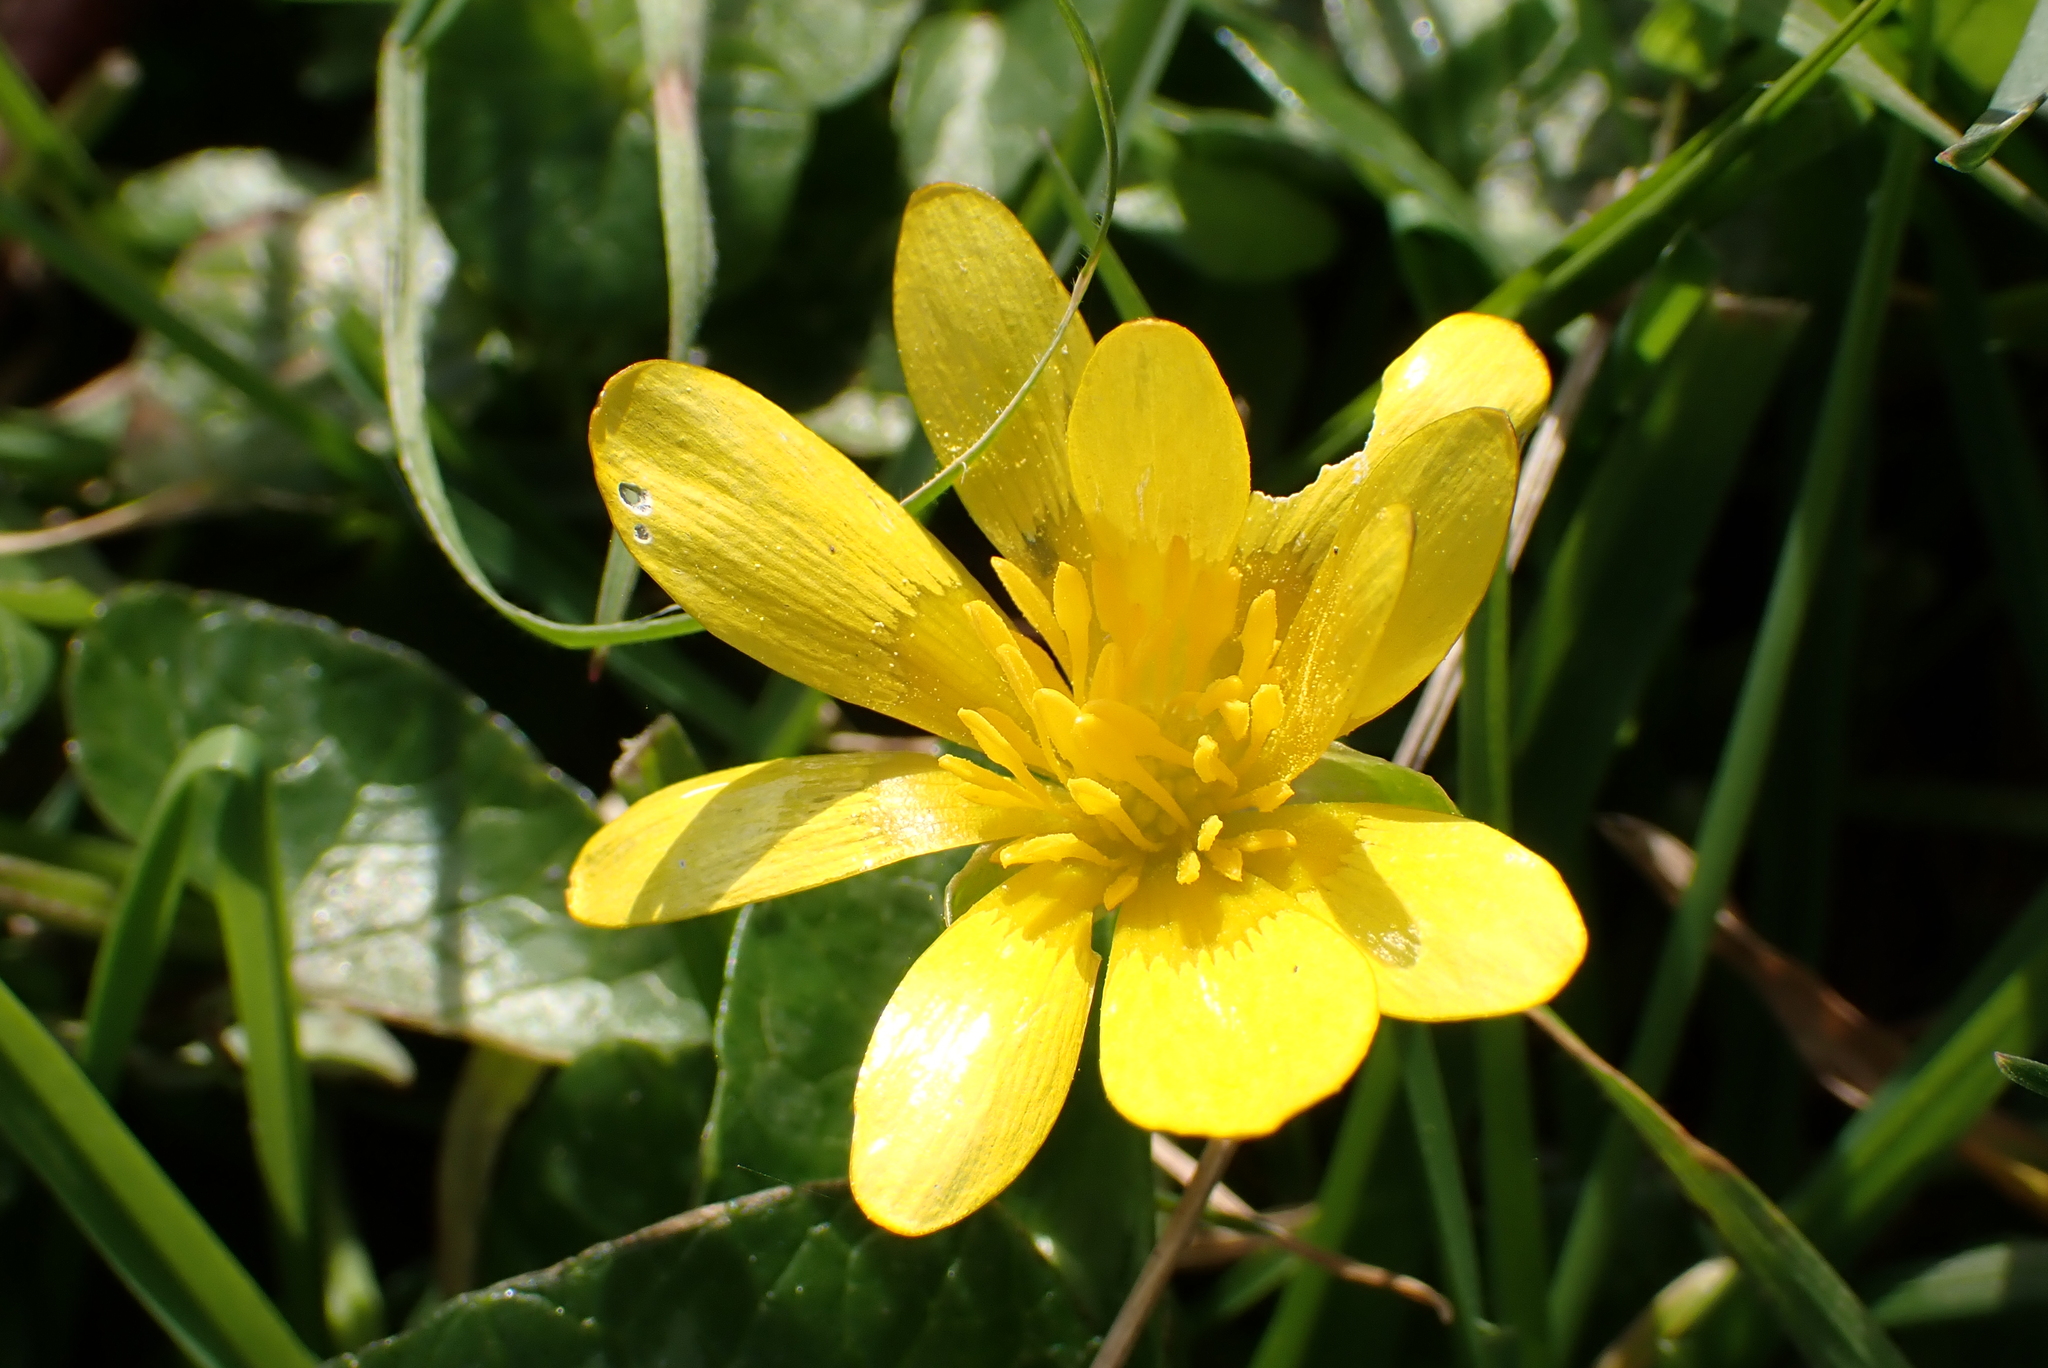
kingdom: Plantae
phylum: Tracheophyta
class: Magnoliopsida
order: Ranunculales
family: Ranunculaceae
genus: Ficaria
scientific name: Ficaria verna
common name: Lesser celandine
